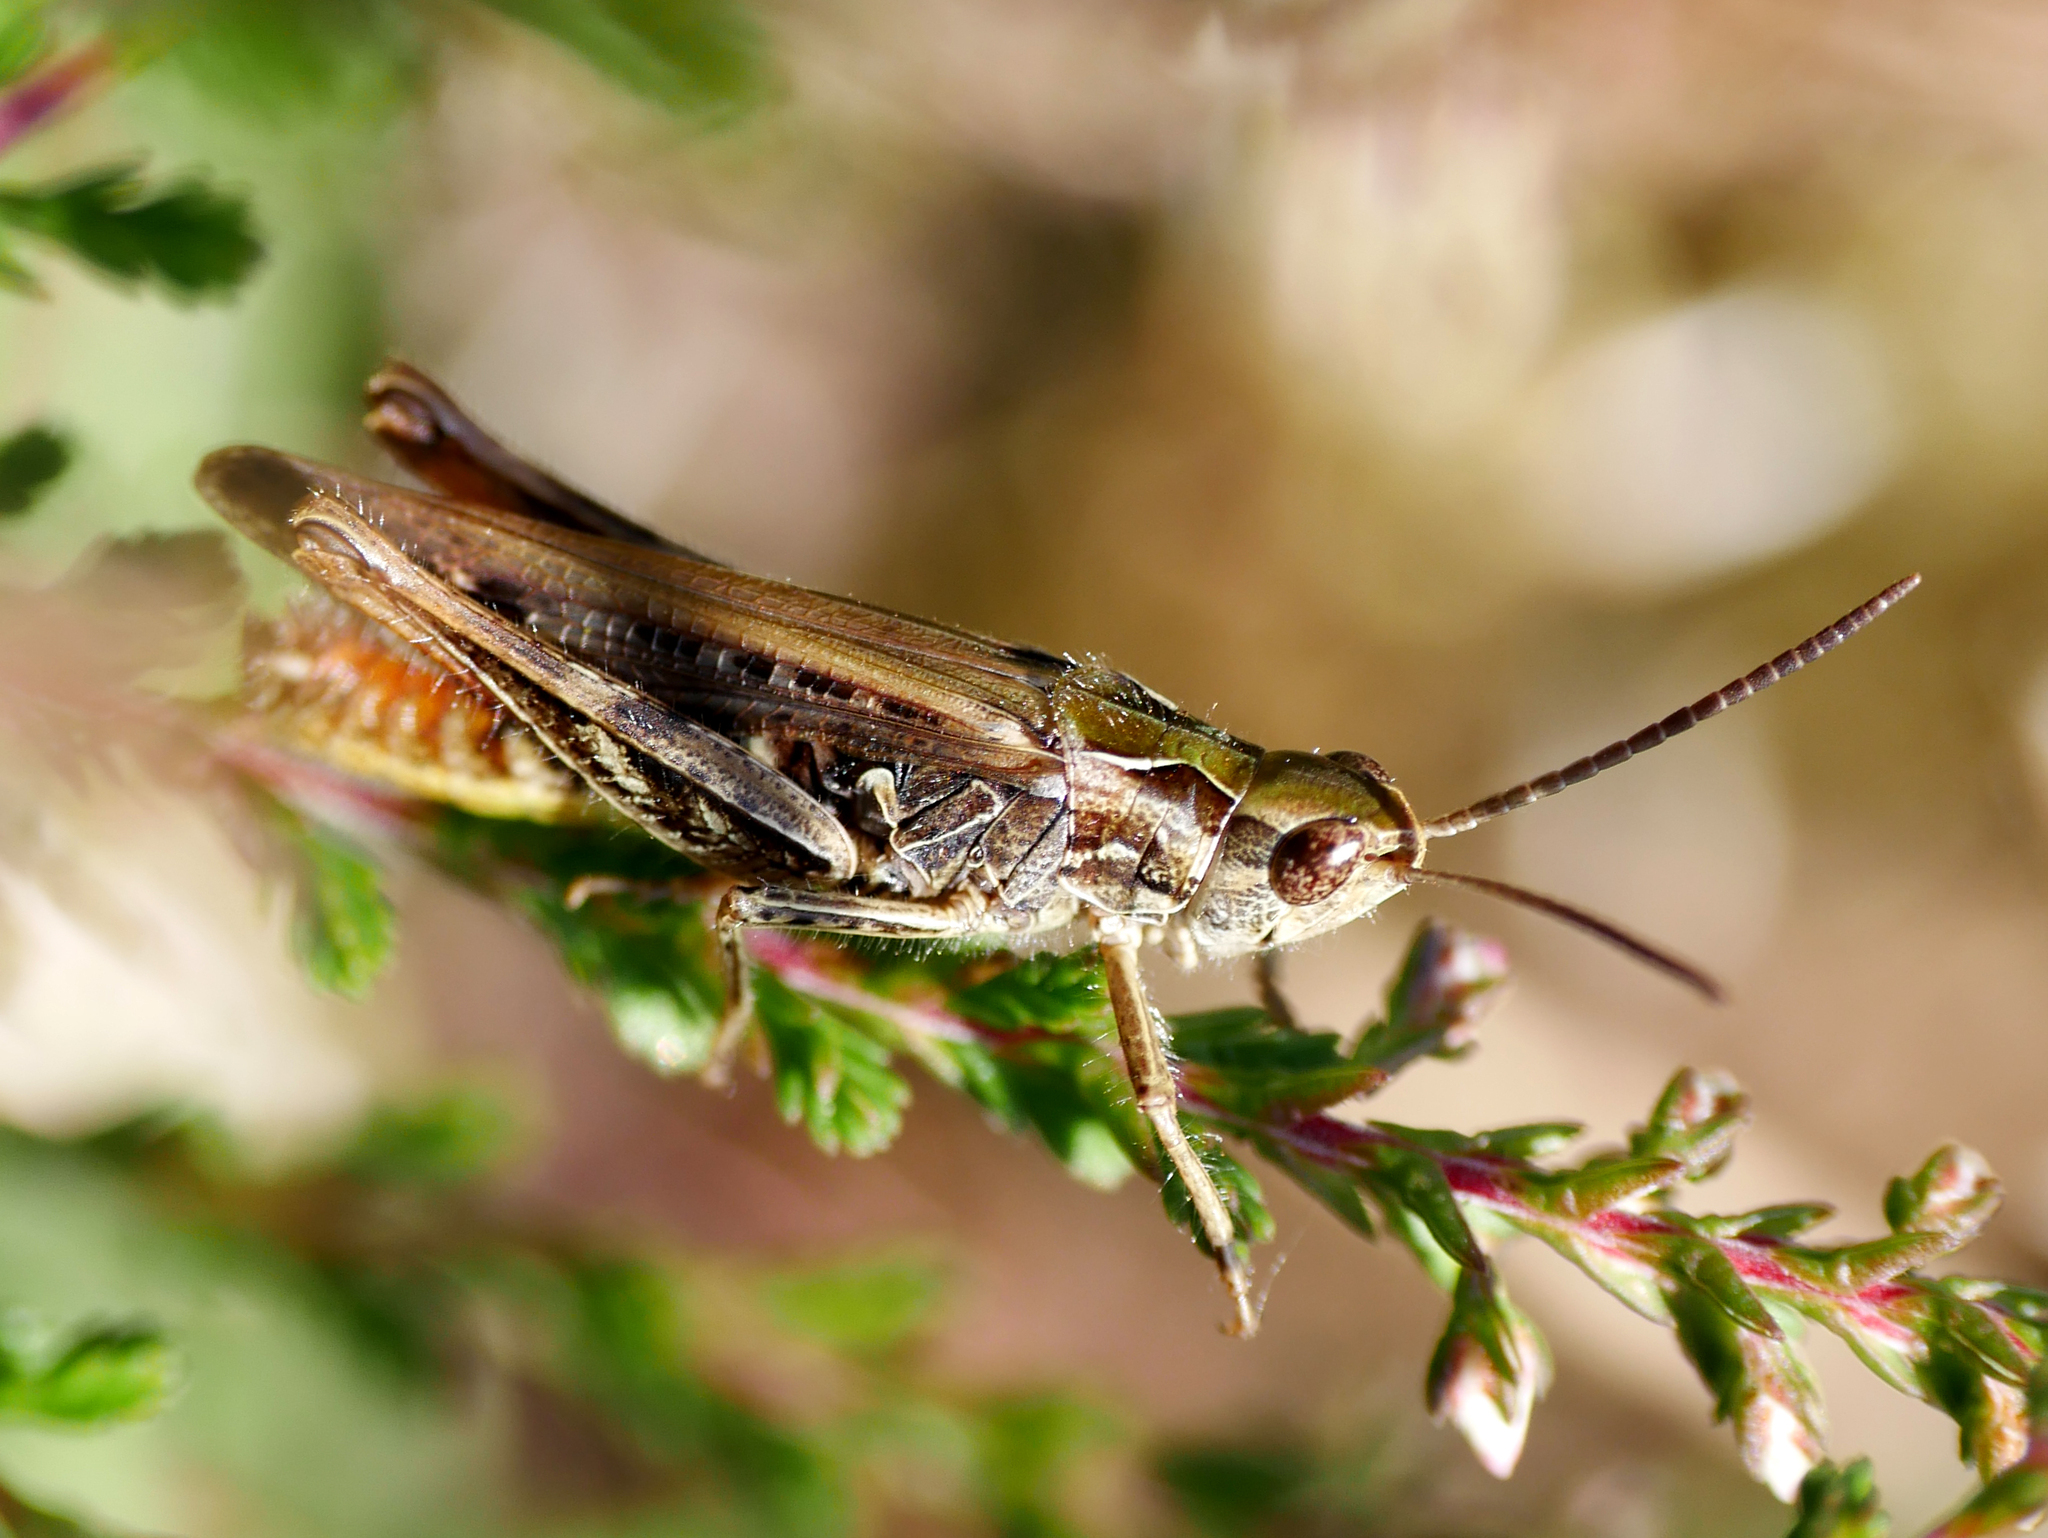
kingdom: Animalia
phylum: Arthropoda
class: Insecta
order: Orthoptera
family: Acrididae
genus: Chorthippus
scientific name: Chorthippus biguttulus
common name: Bow-winged grasshopper
